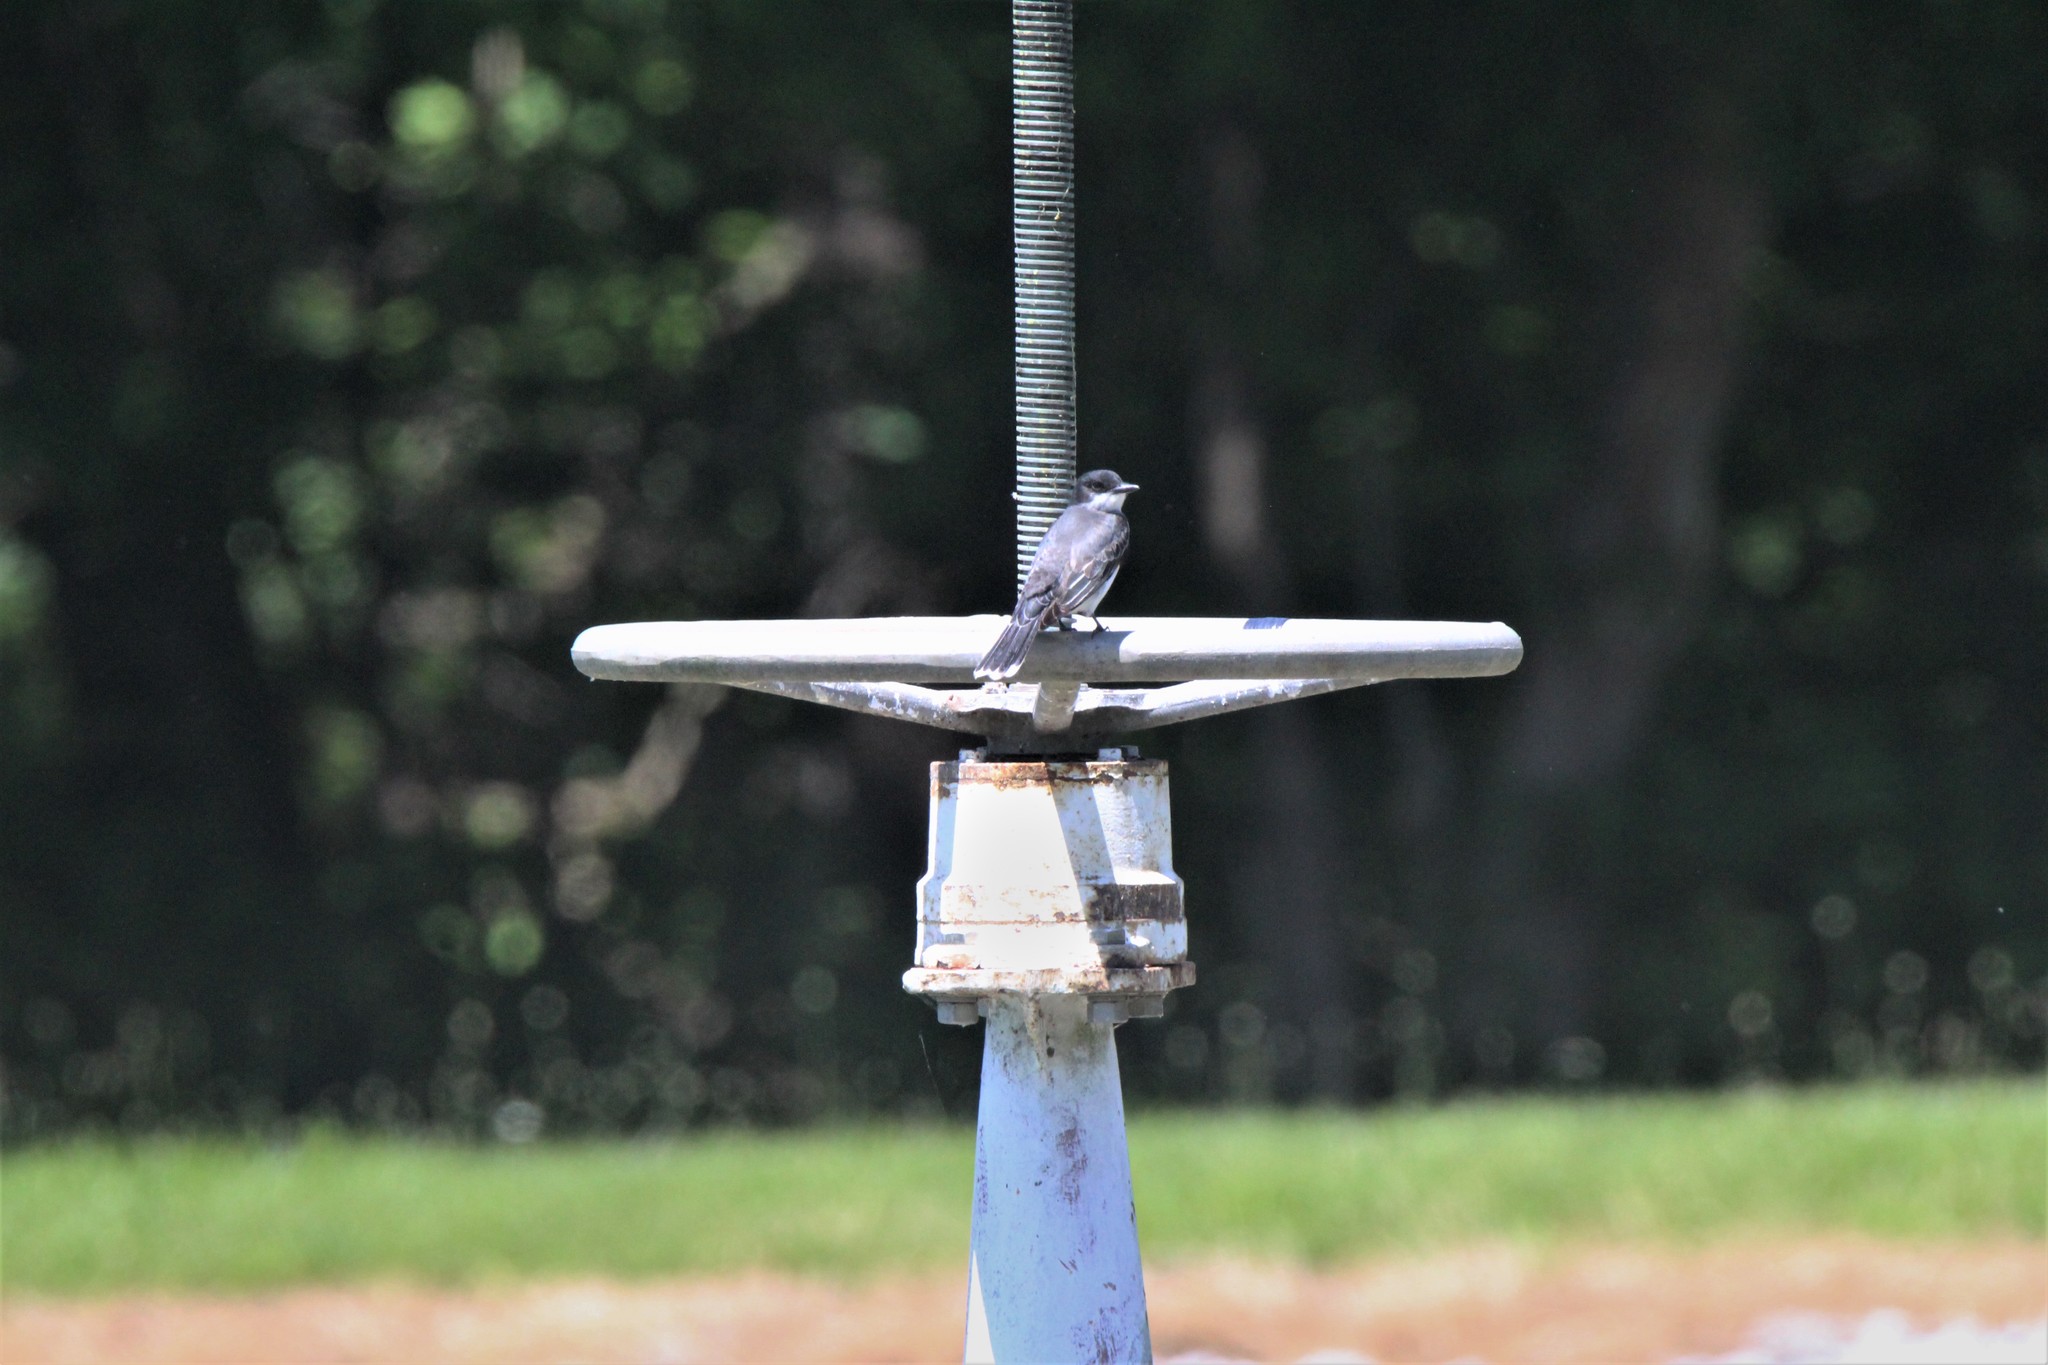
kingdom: Animalia
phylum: Chordata
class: Aves
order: Passeriformes
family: Tyrannidae
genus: Tyrannus
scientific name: Tyrannus tyrannus
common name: Eastern kingbird
